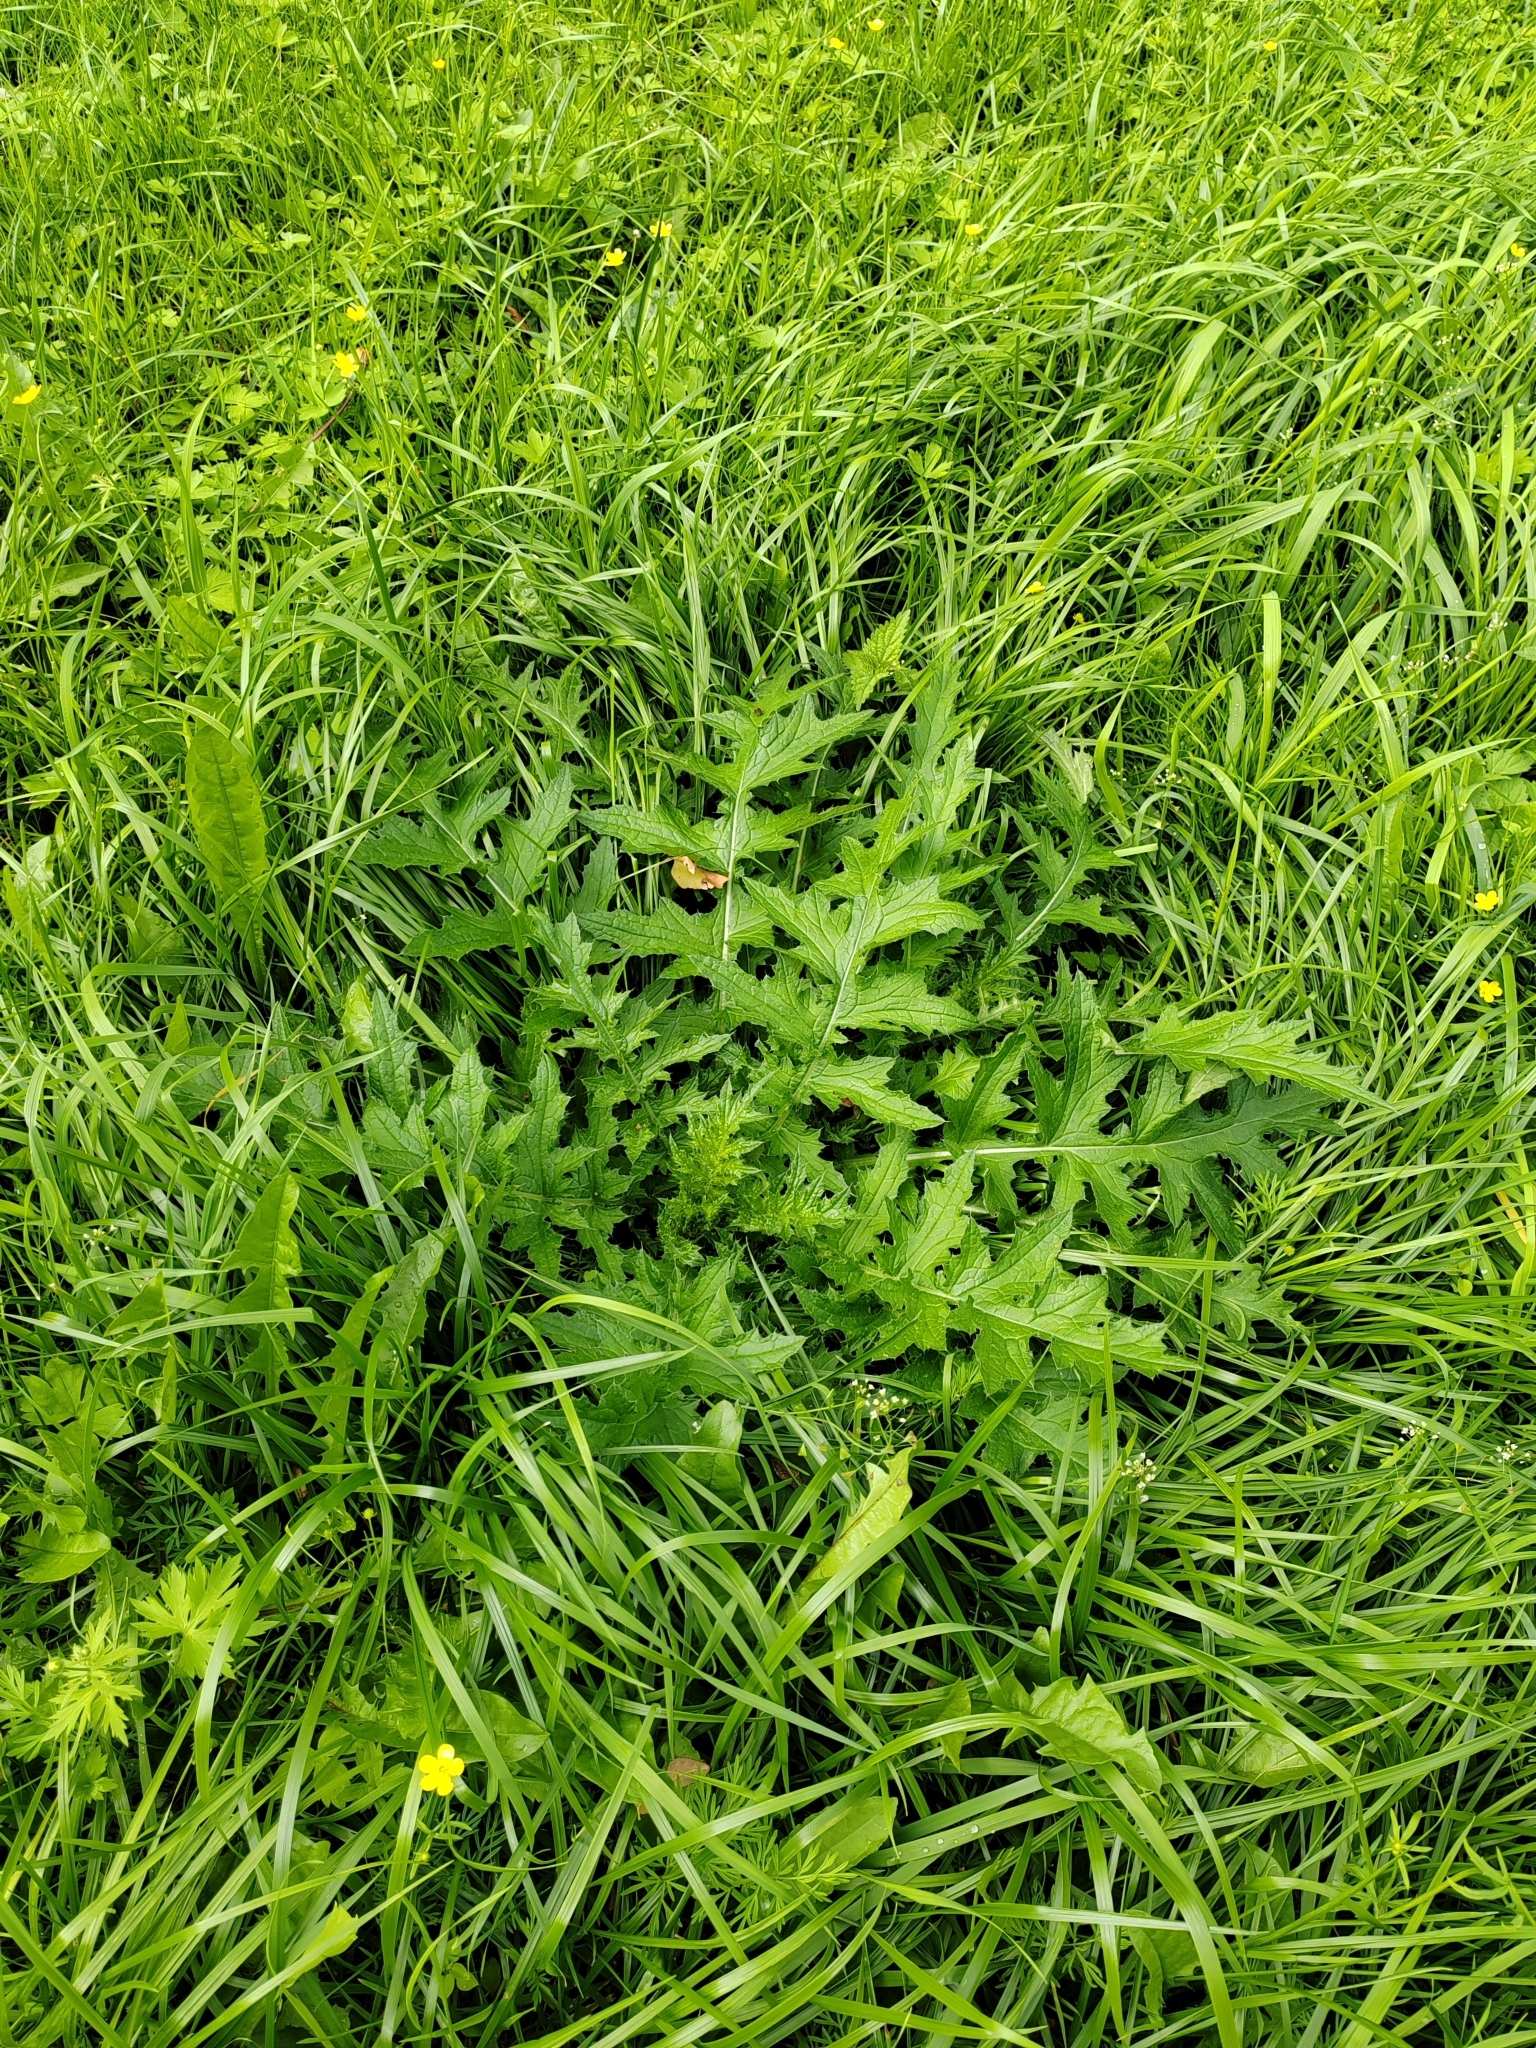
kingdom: Plantae
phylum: Tracheophyta
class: Magnoliopsida
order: Asterales
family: Asteraceae
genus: Carduus
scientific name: Carduus crispus
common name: Welted thistle
